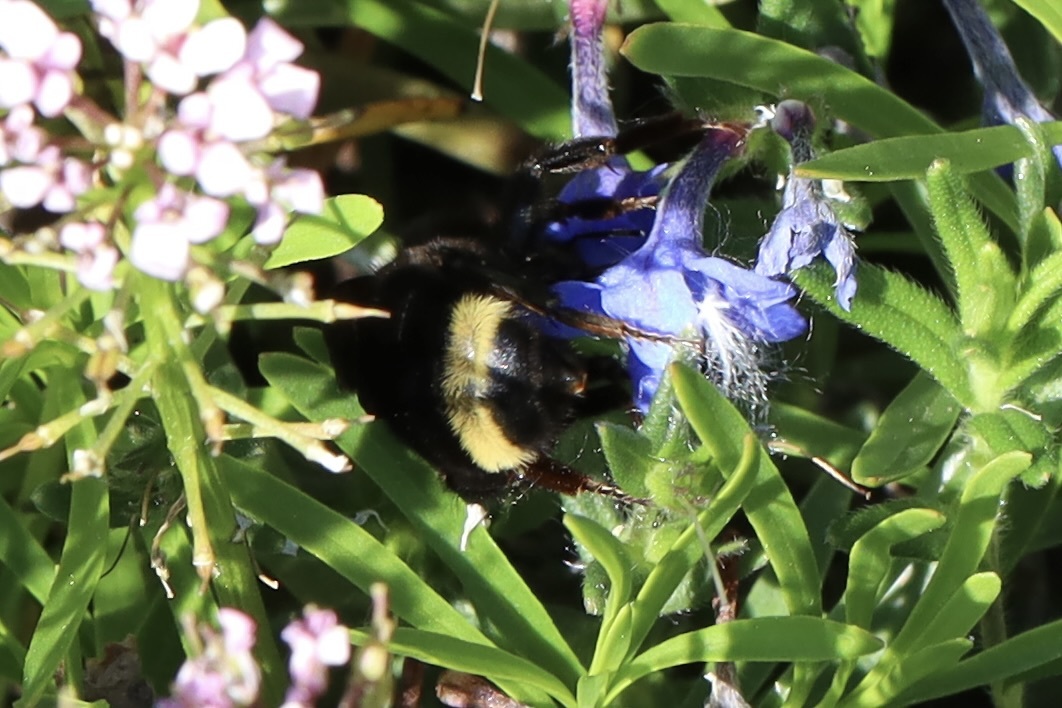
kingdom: Animalia
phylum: Arthropoda
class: Insecta
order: Hymenoptera
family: Apidae
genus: Bombus
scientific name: Bombus californicus
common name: California bumble bee
